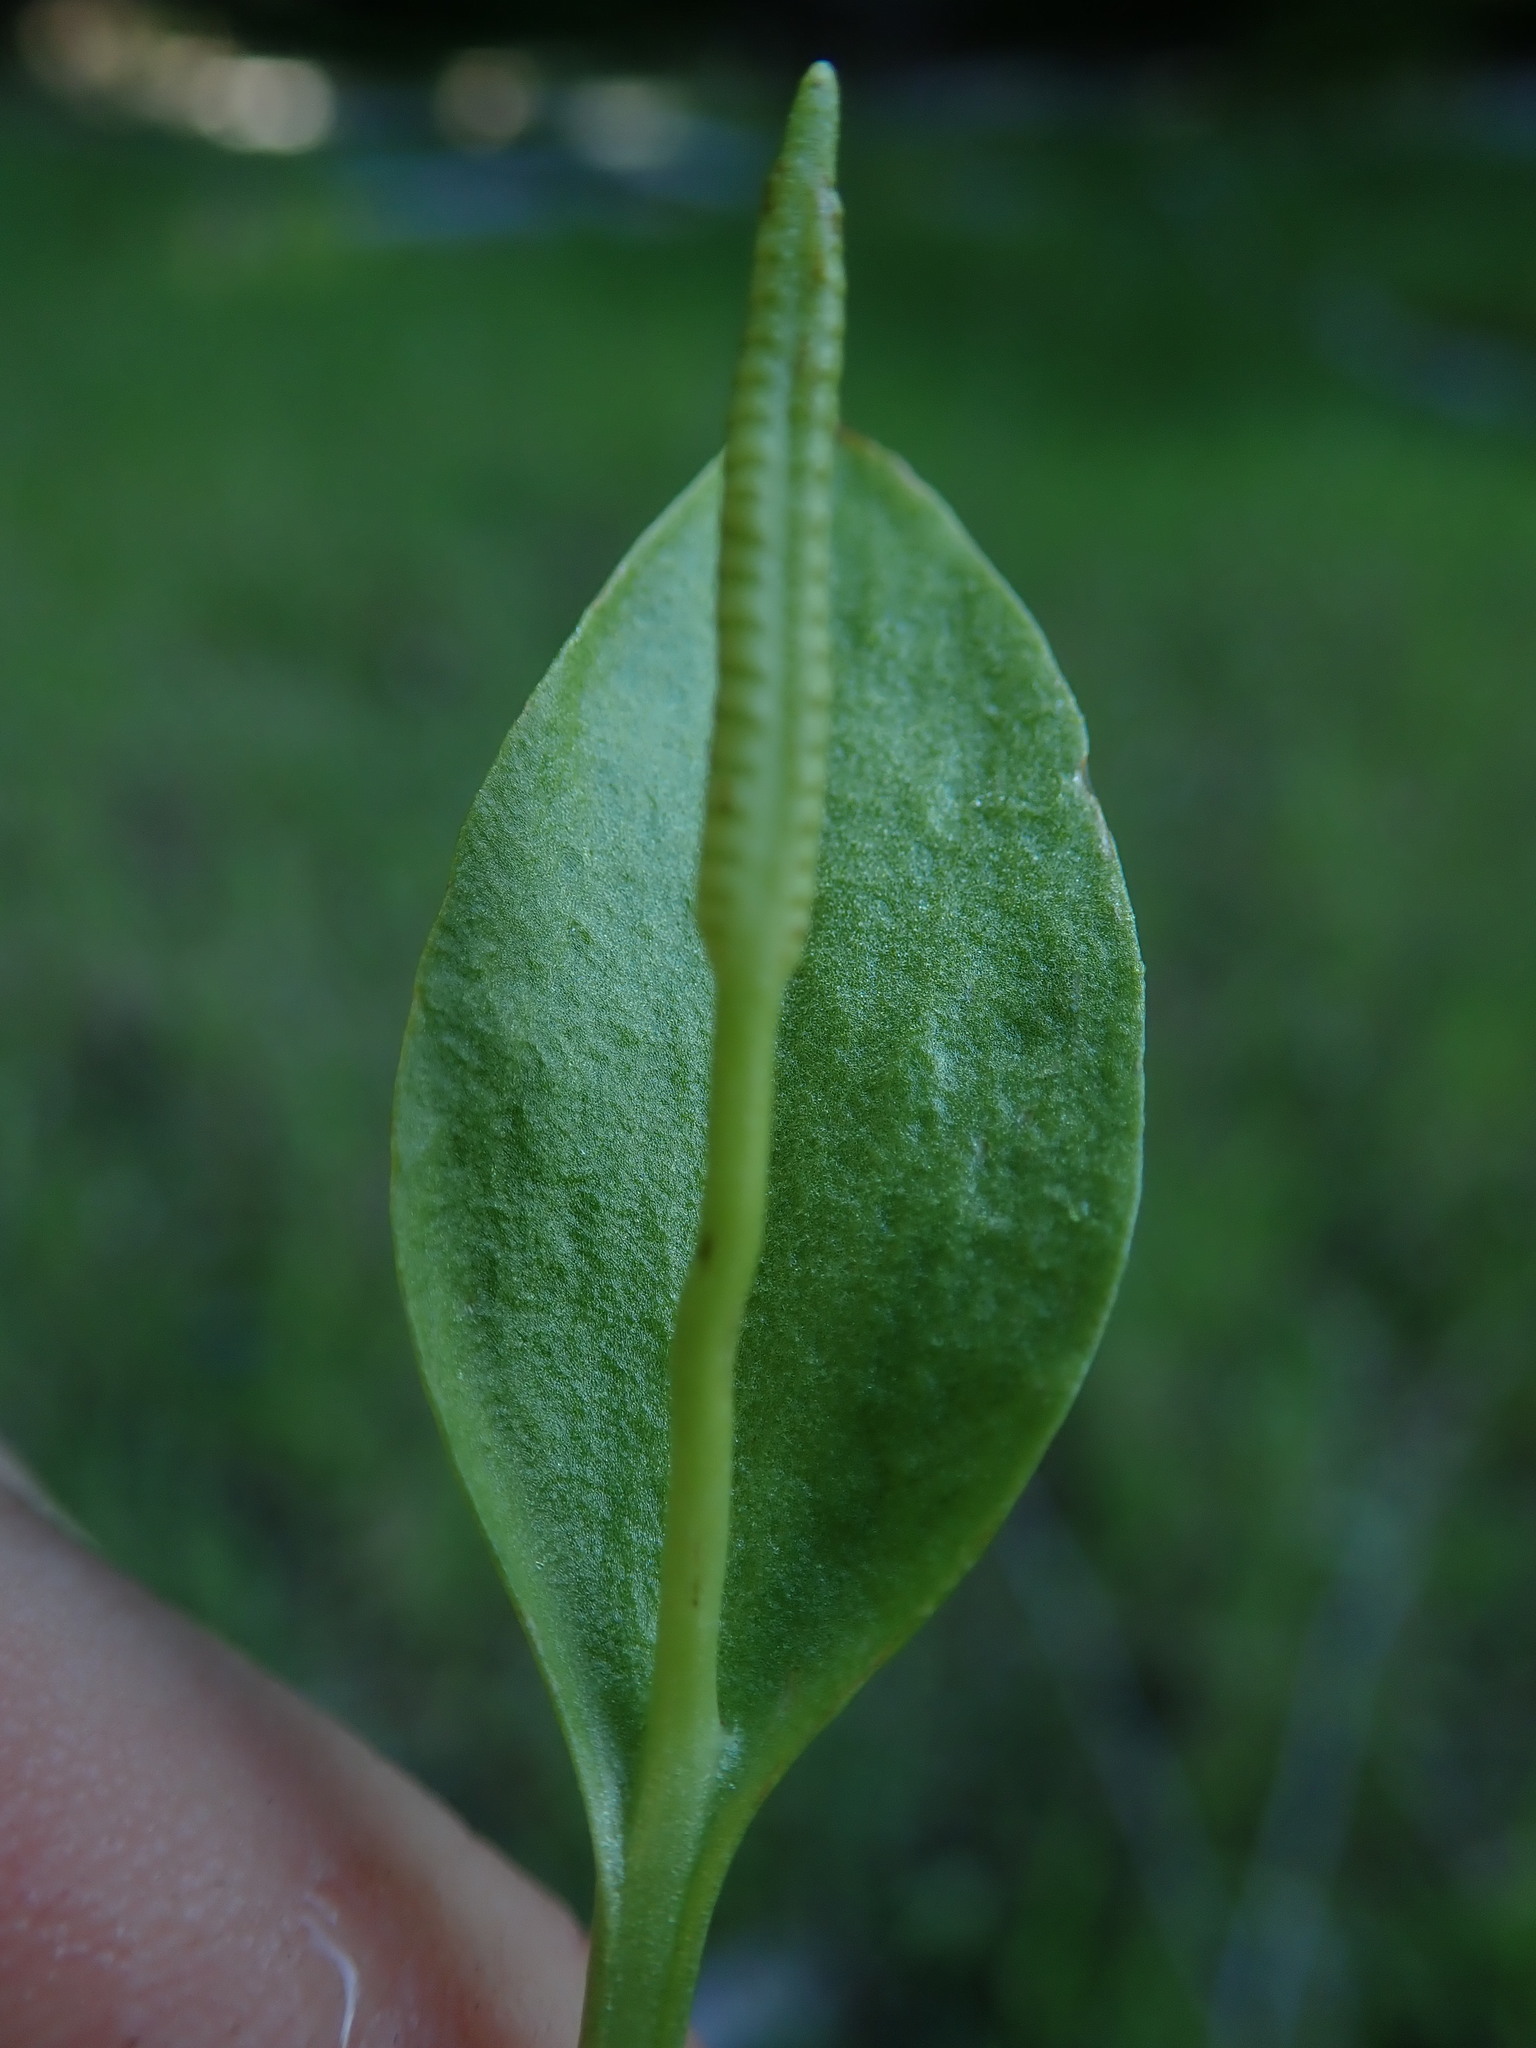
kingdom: Plantae
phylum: Tracheophyta
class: Polypodiopsida
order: Ophioglossales
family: Ophioglossaceae
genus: Ophioglossum
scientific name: Ophioglossum pusillum
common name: Northern adder's-tongue
